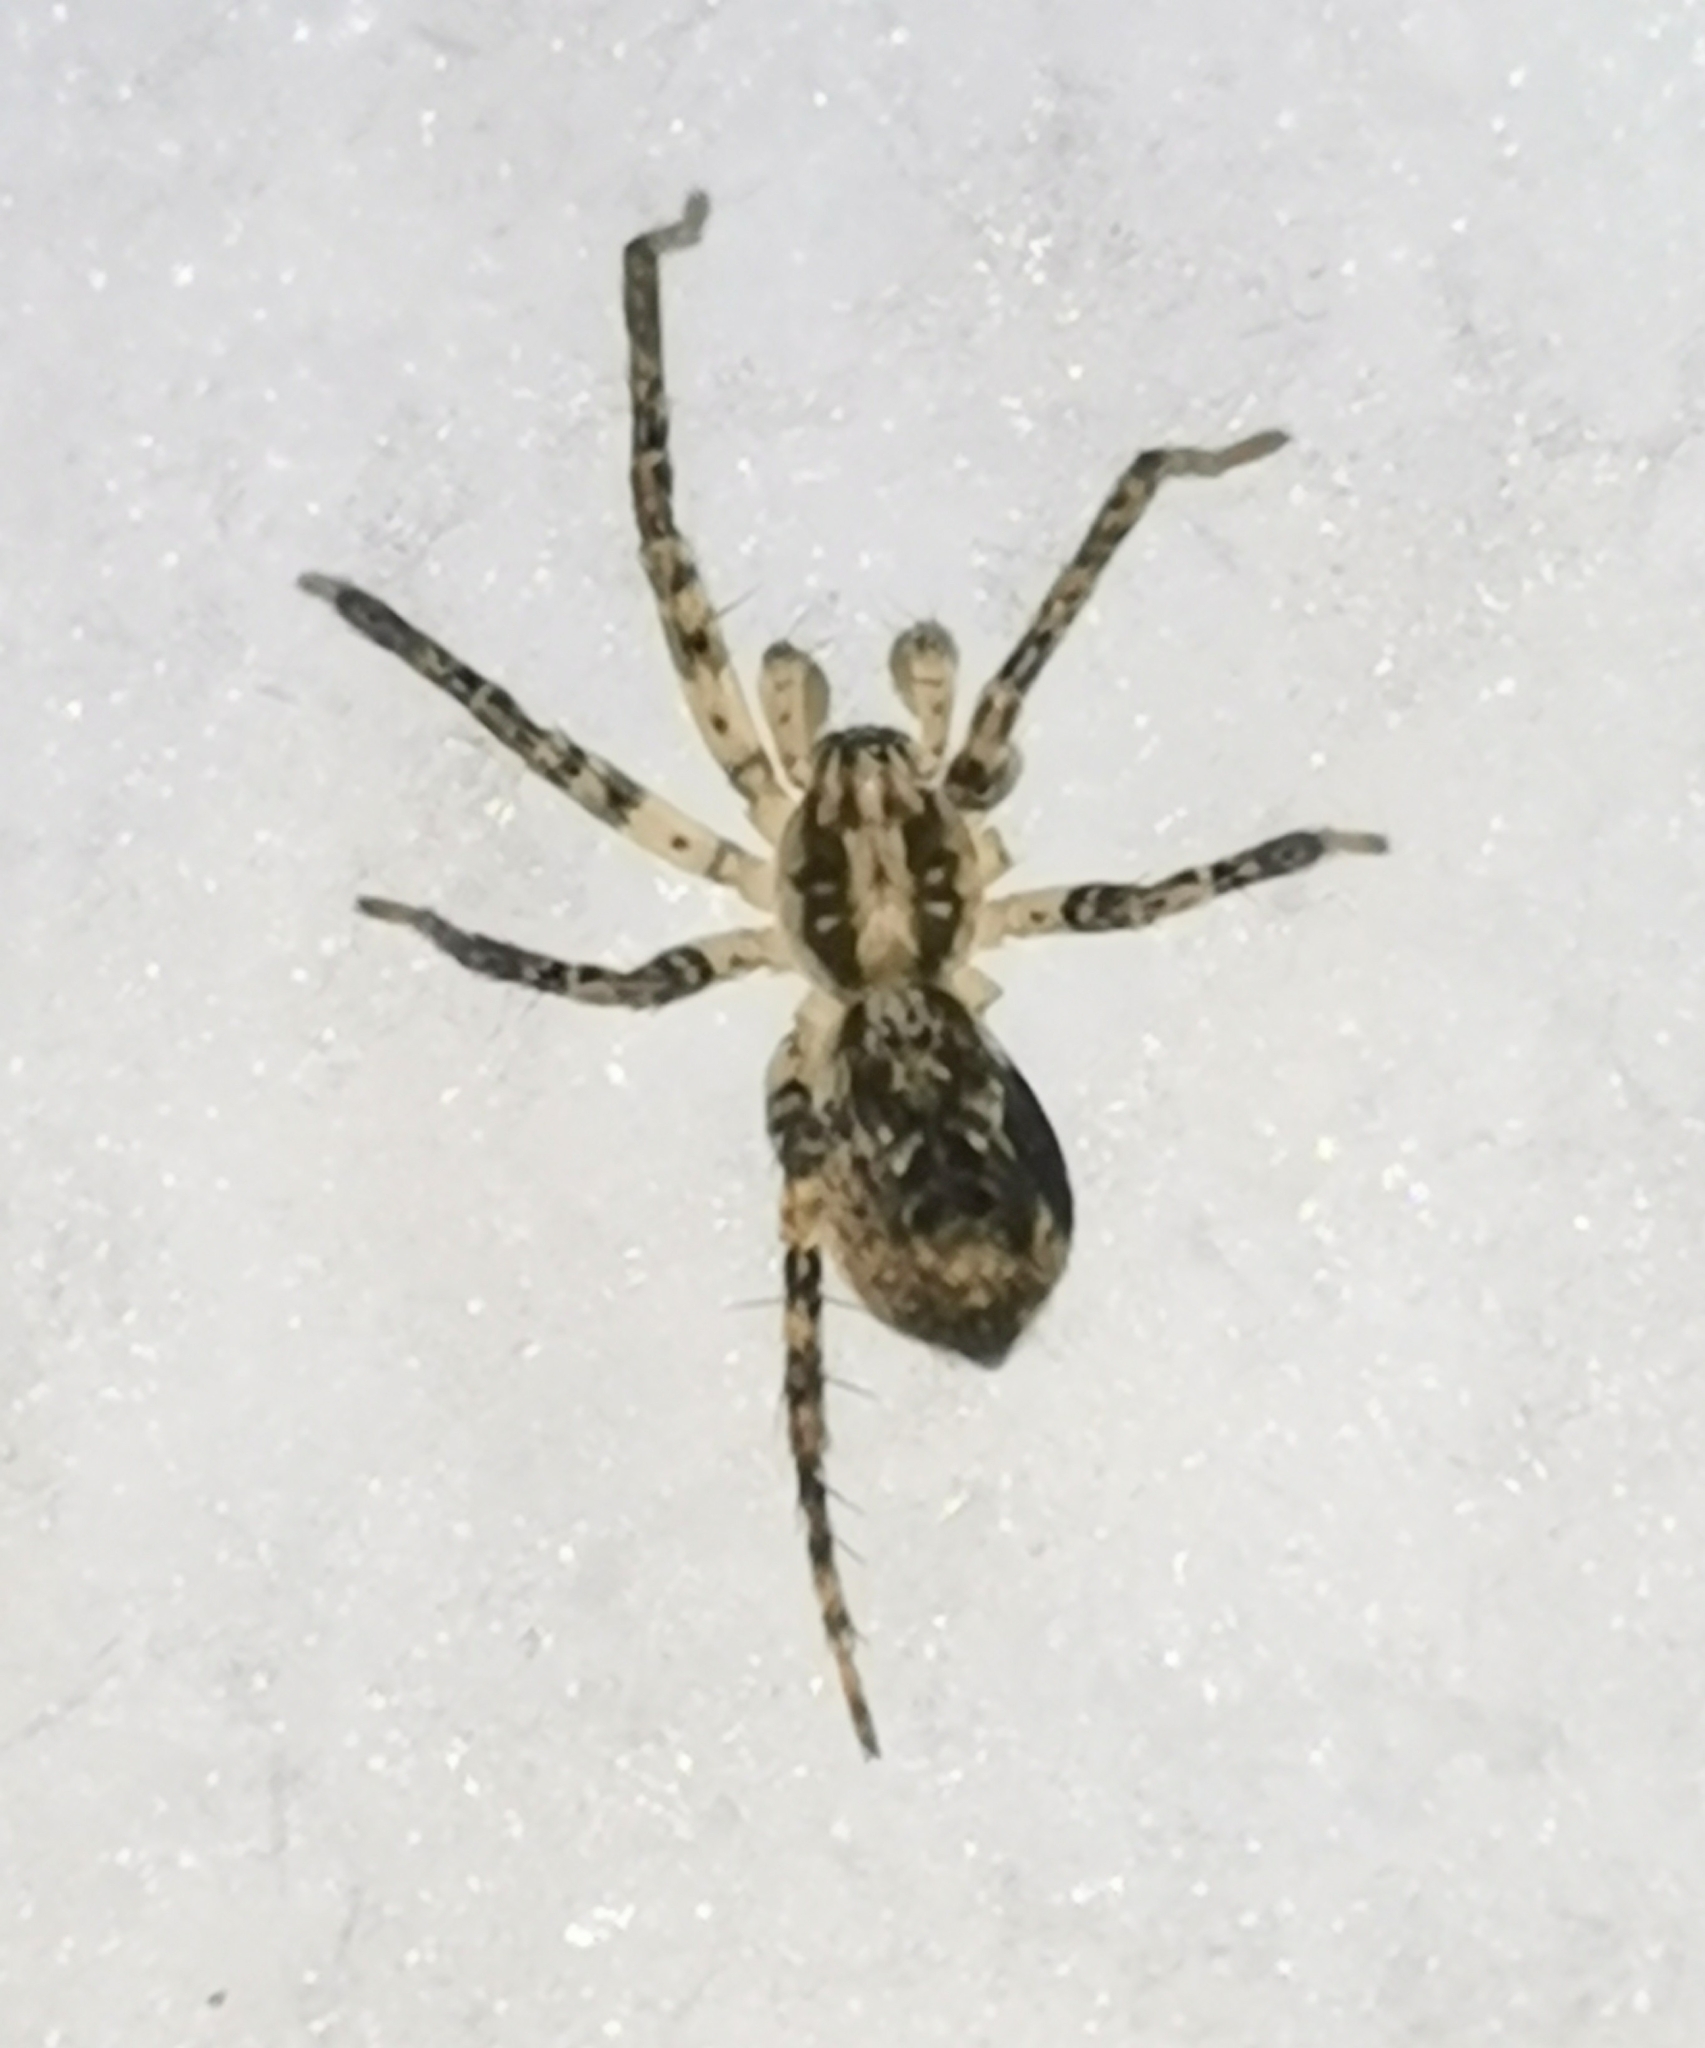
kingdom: Animalia
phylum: Arthropoda
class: Arachnida
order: Araneae
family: Anyphaenidae
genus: Anyphaena
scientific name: Anyphaena accentuata
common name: Buzzing spider
